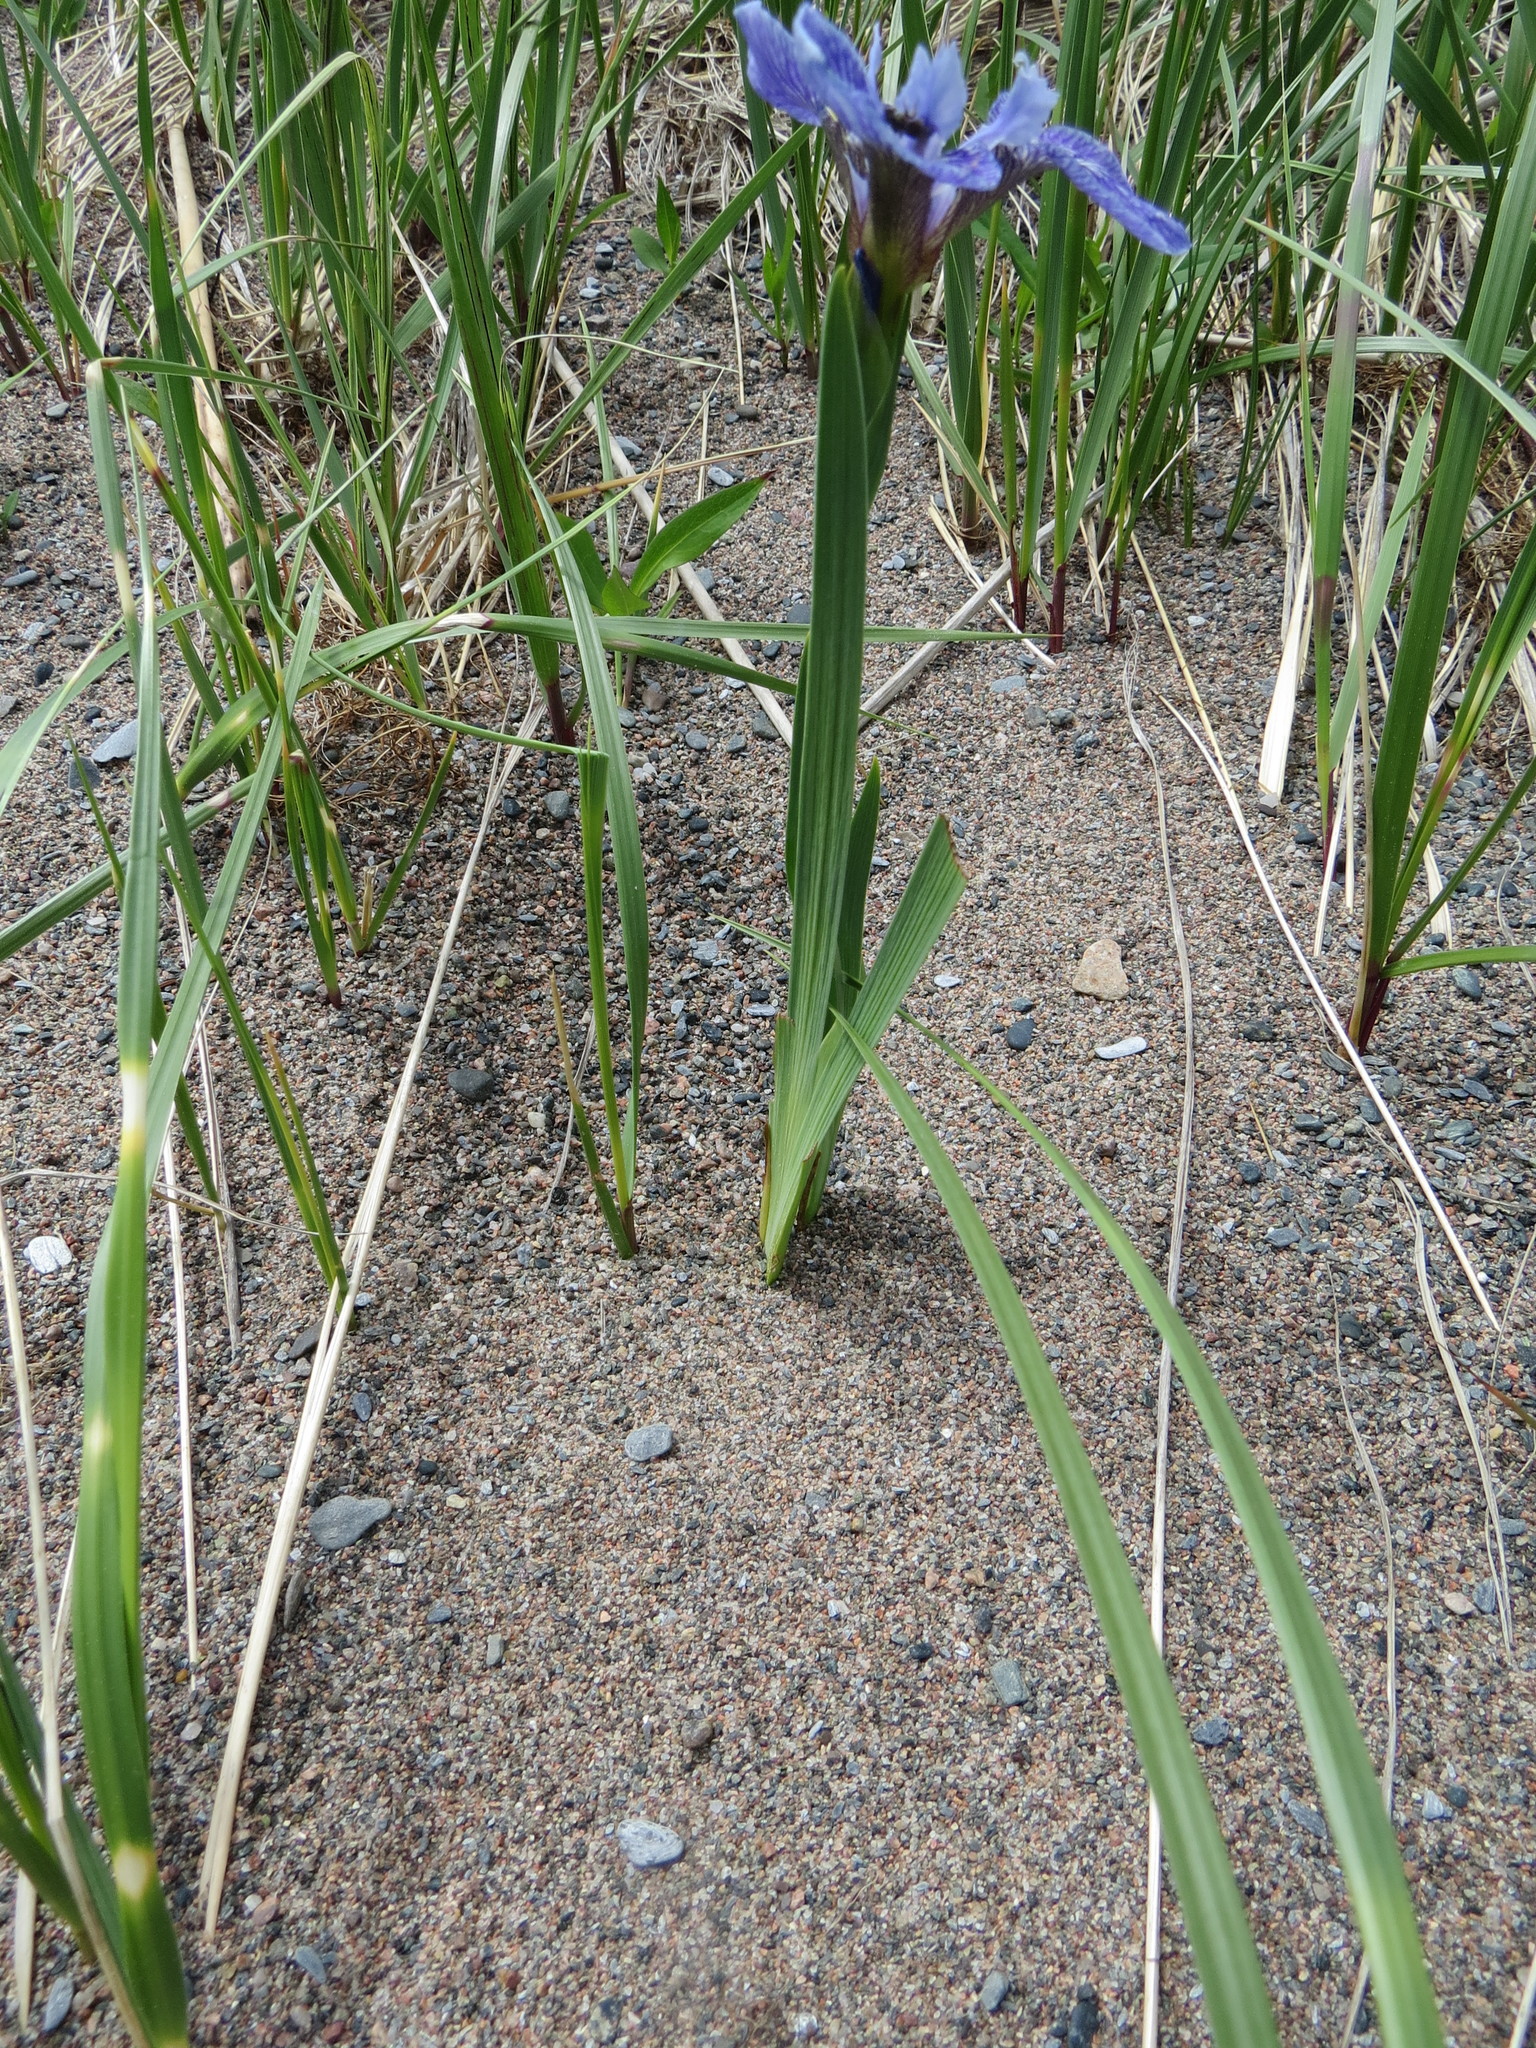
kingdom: Plantae
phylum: Tracheophyta
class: Liliopsida
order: Asparagales
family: Iridaceae
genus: Iris
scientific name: Iris hookeri
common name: Canada beach-head iris
